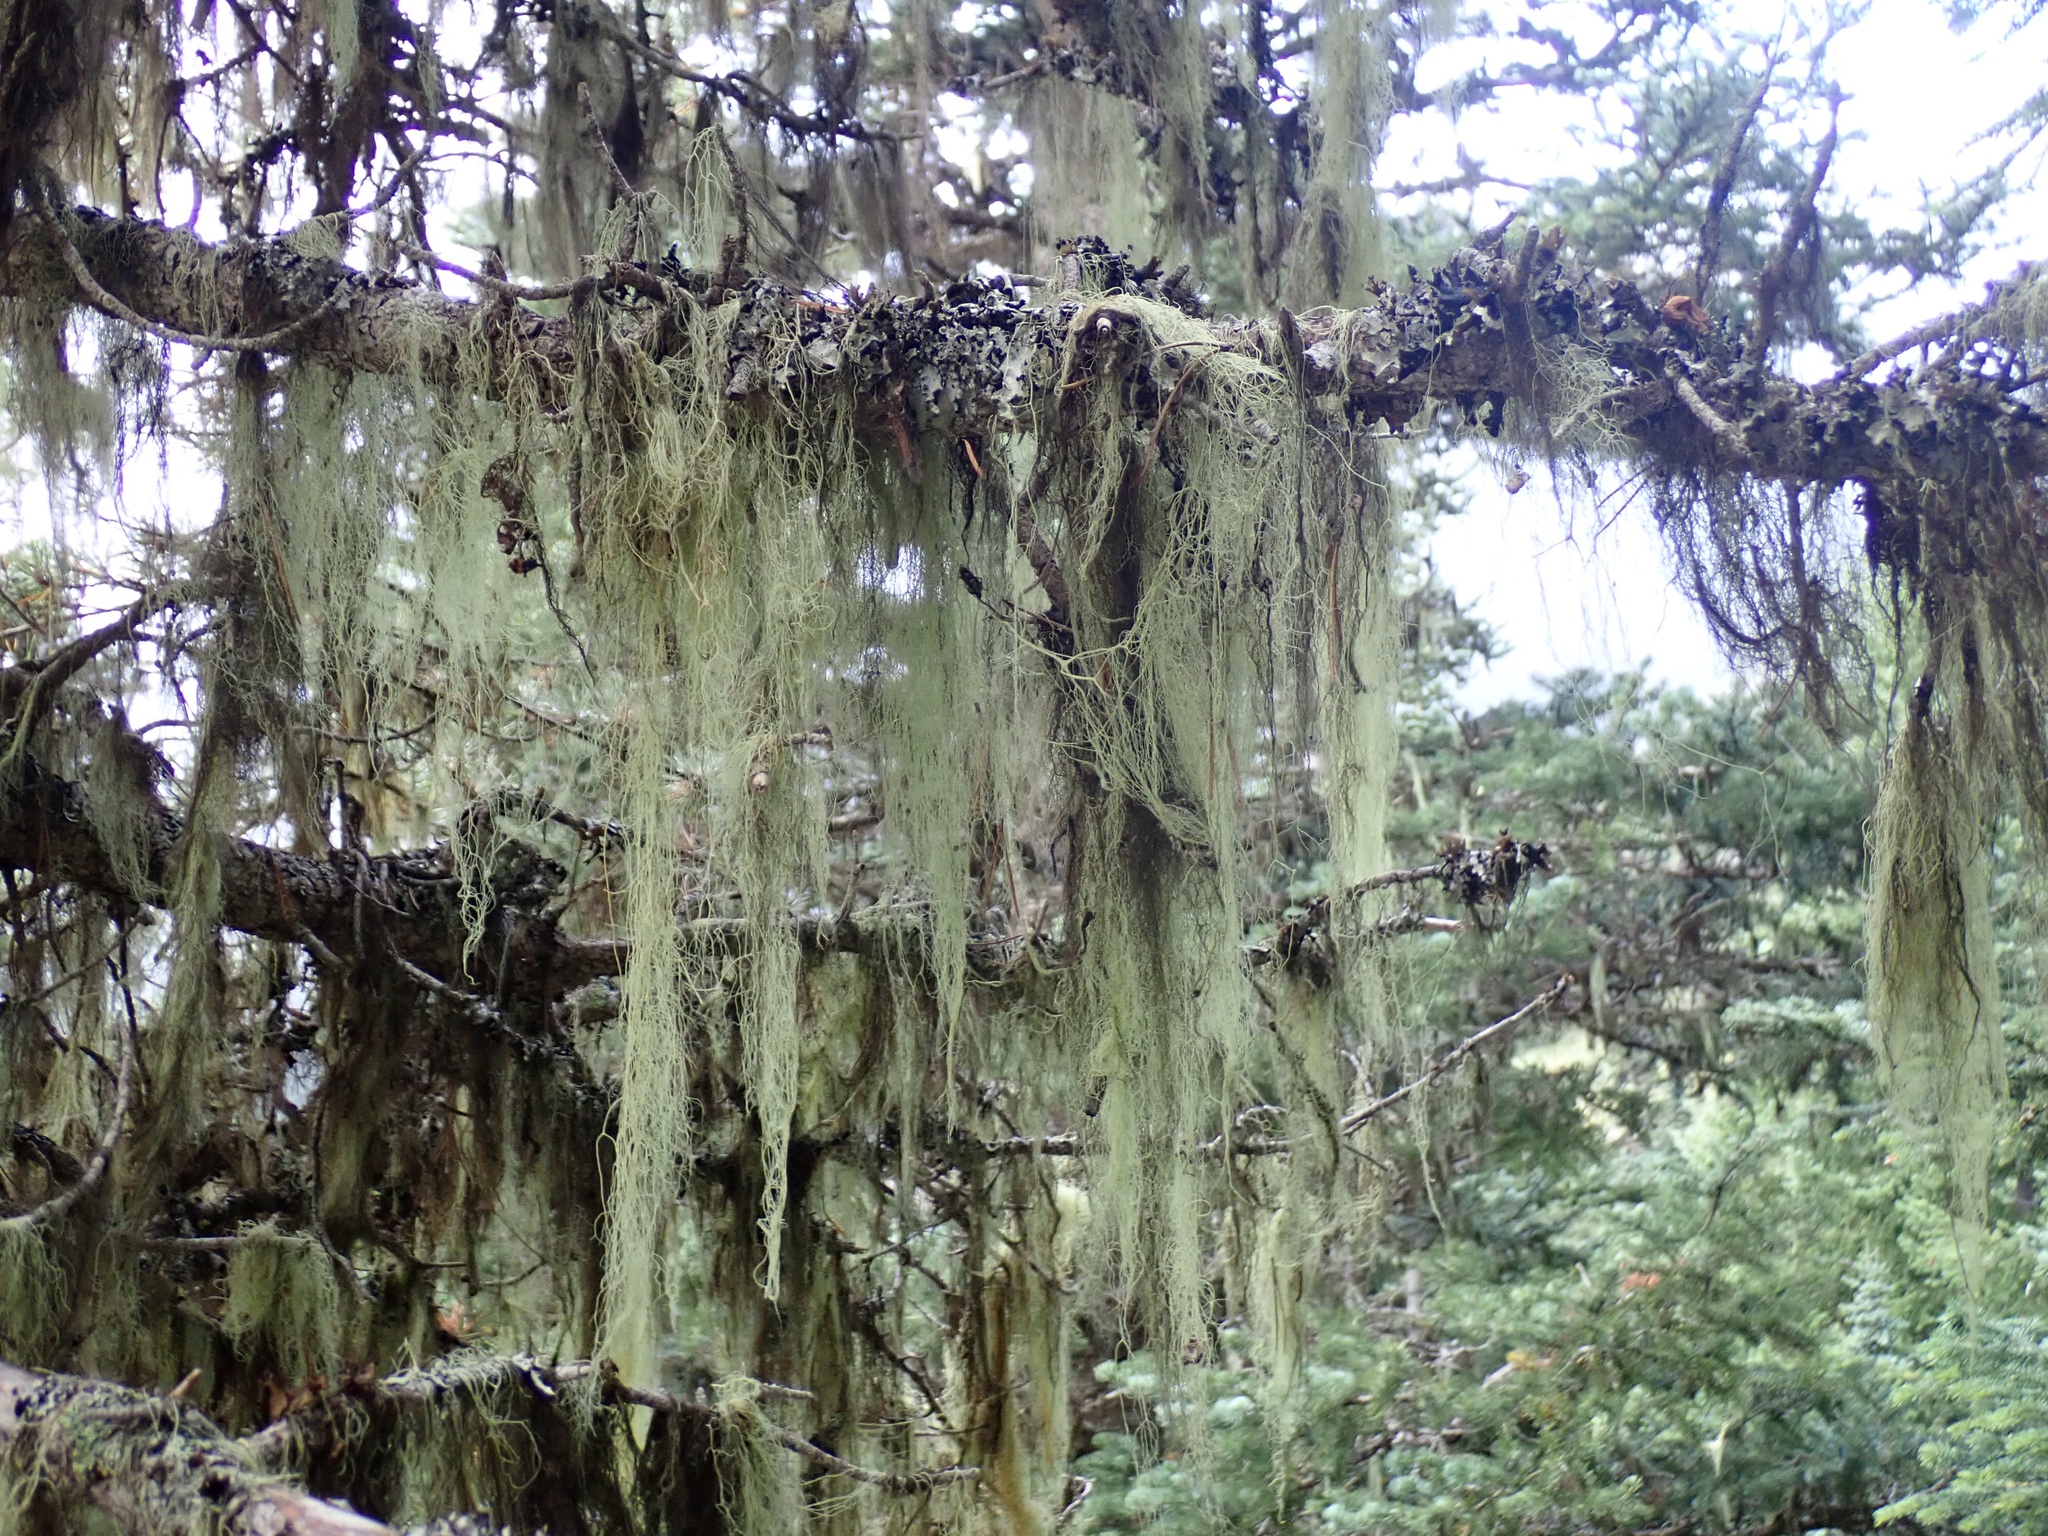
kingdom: Fungi
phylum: Ascomycota
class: Lecanoromycetes
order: Lecanorales
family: Parmeliaceae
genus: Alectoria
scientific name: Alectoria sarmentosa
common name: Witch's hair
